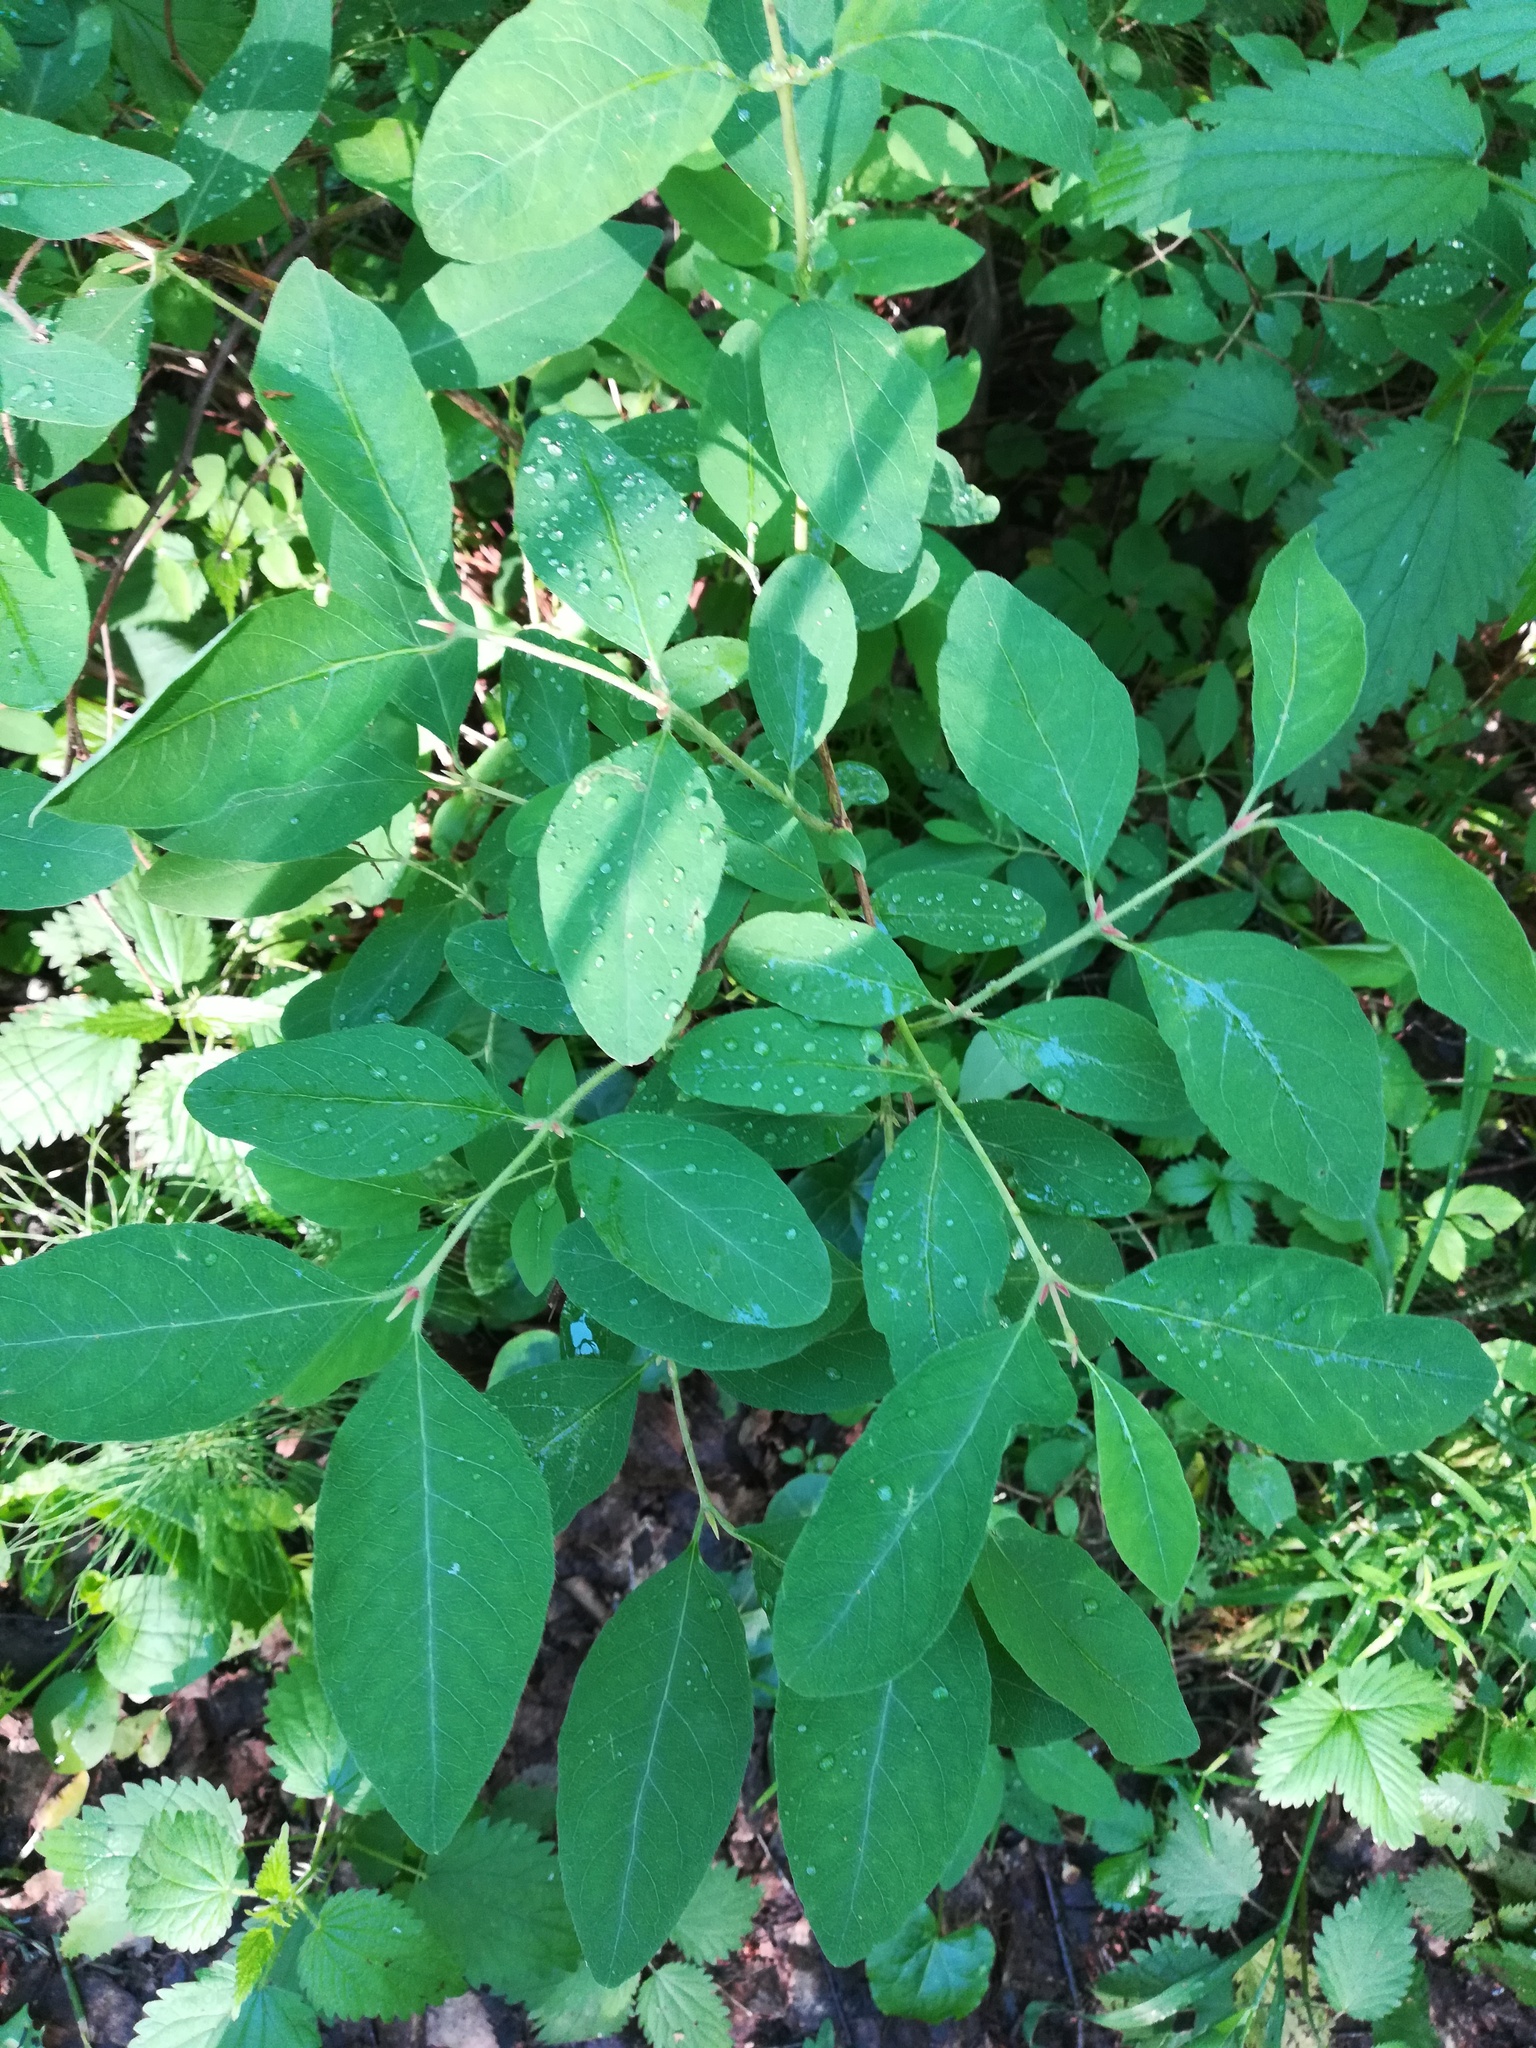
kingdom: Plantae
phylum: Tracheophyta
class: Magnoliopsida
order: Dipsacales
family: Caprifoliaceae
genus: Lonicera
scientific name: Lonicera caerulea
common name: Blue honeysuckle
